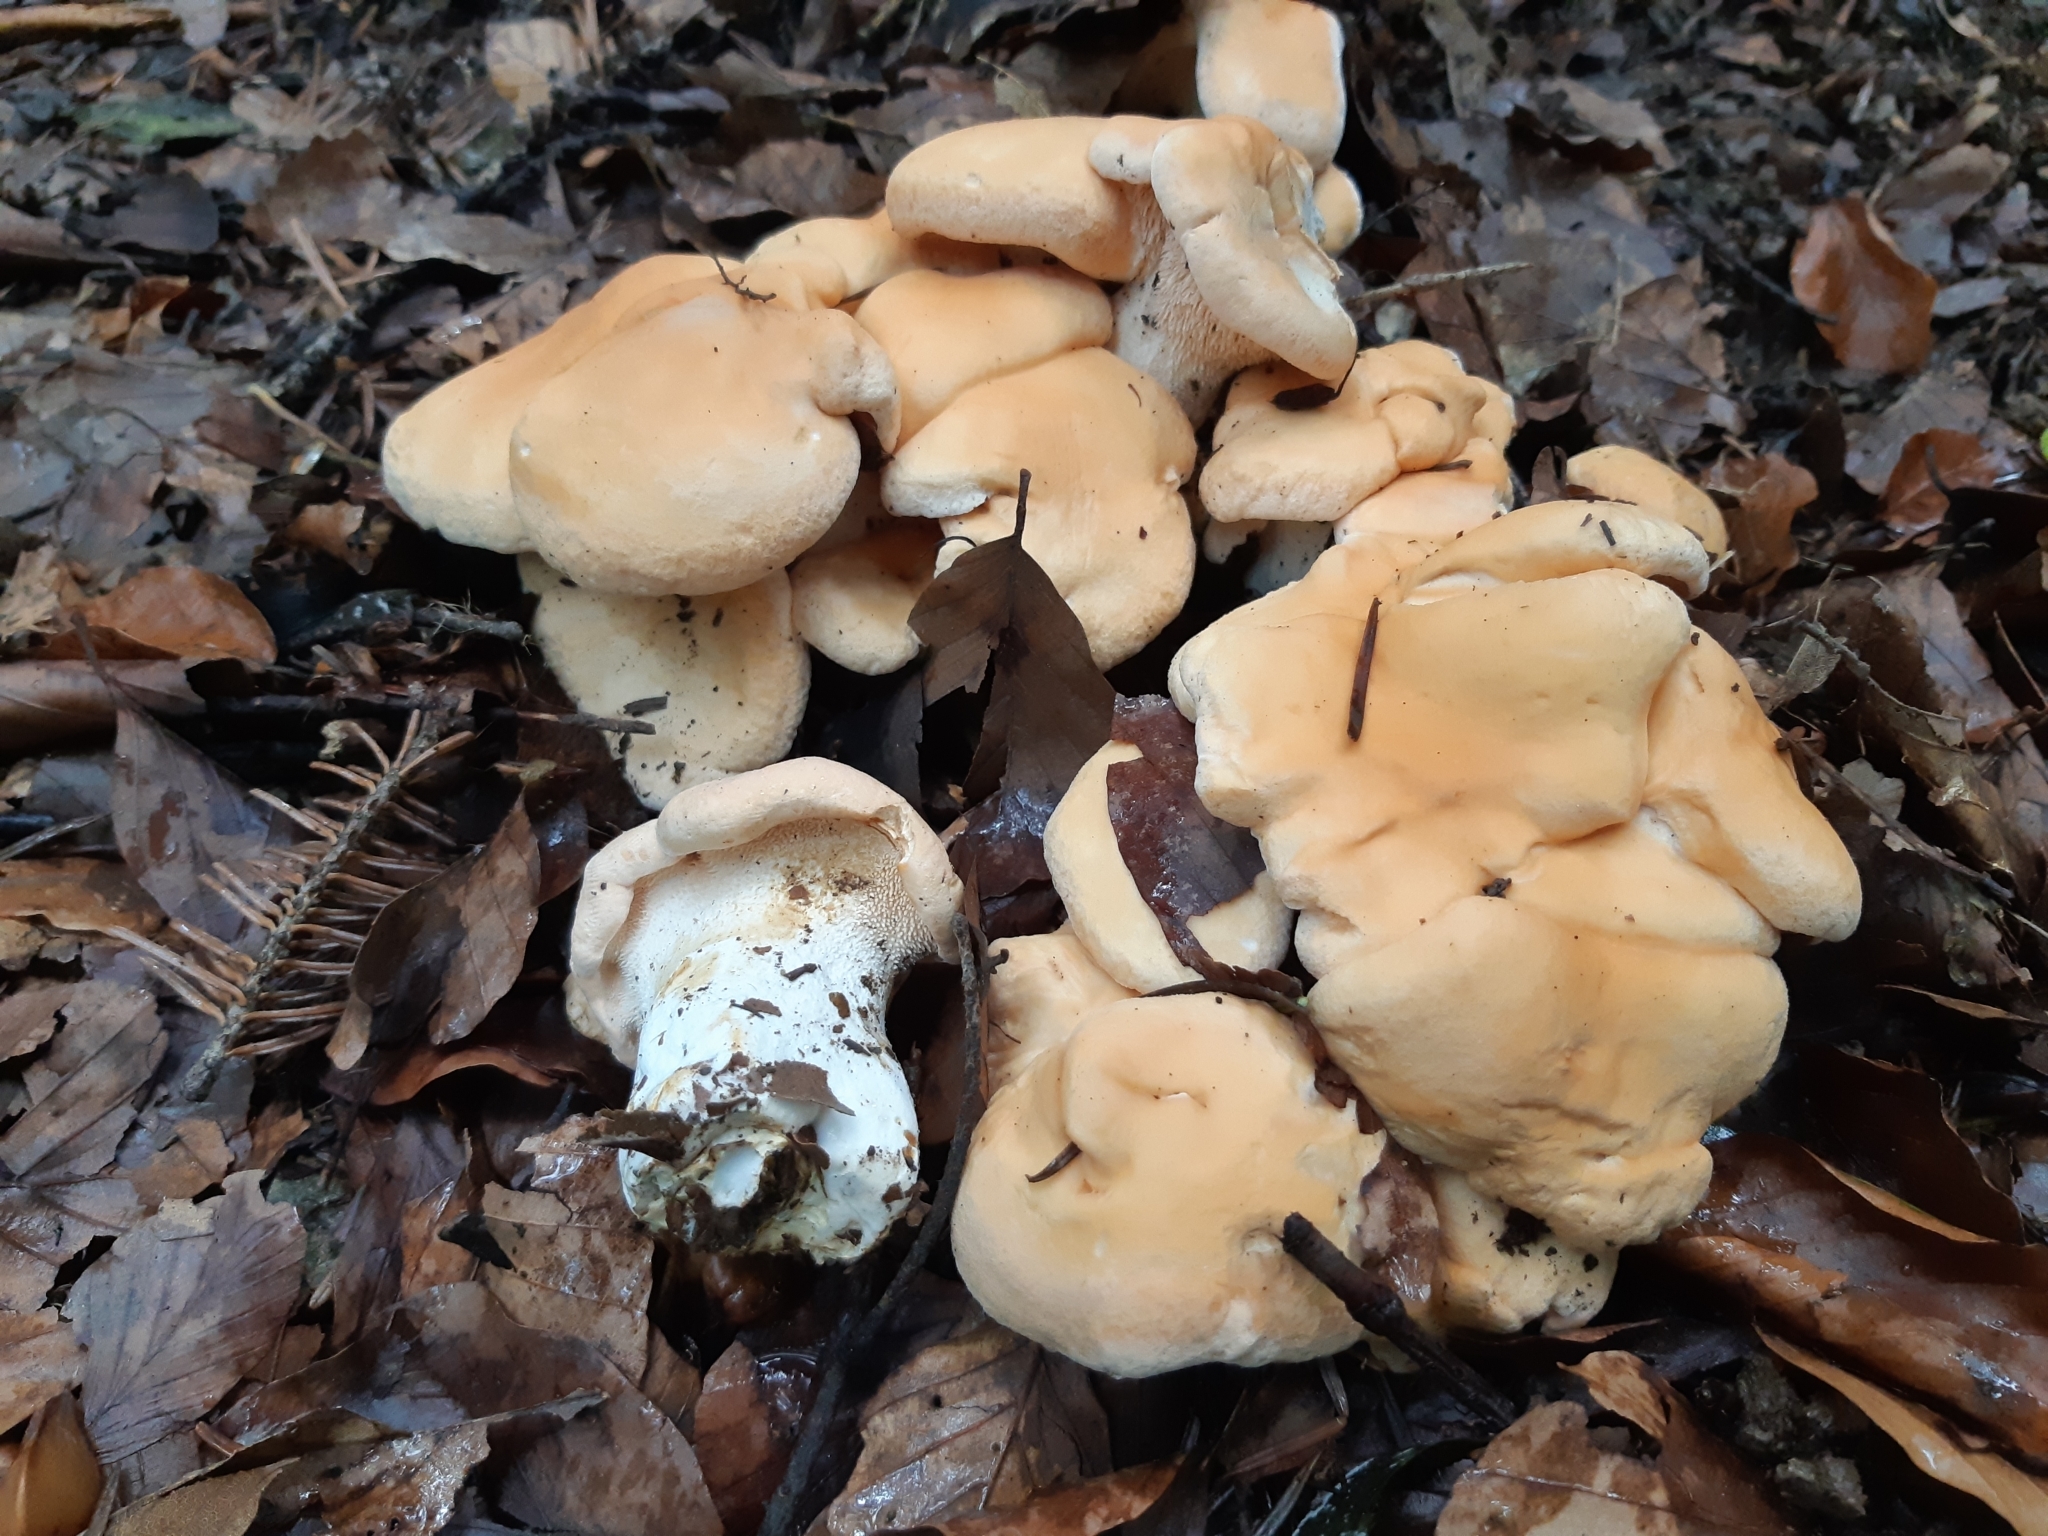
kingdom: Fungi
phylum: Basidiomycota
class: Agaricomycetes
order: Cantharellales
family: Hydnaceae
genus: Hydnum
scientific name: Hydnum repandum
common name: Wood hedgehog
